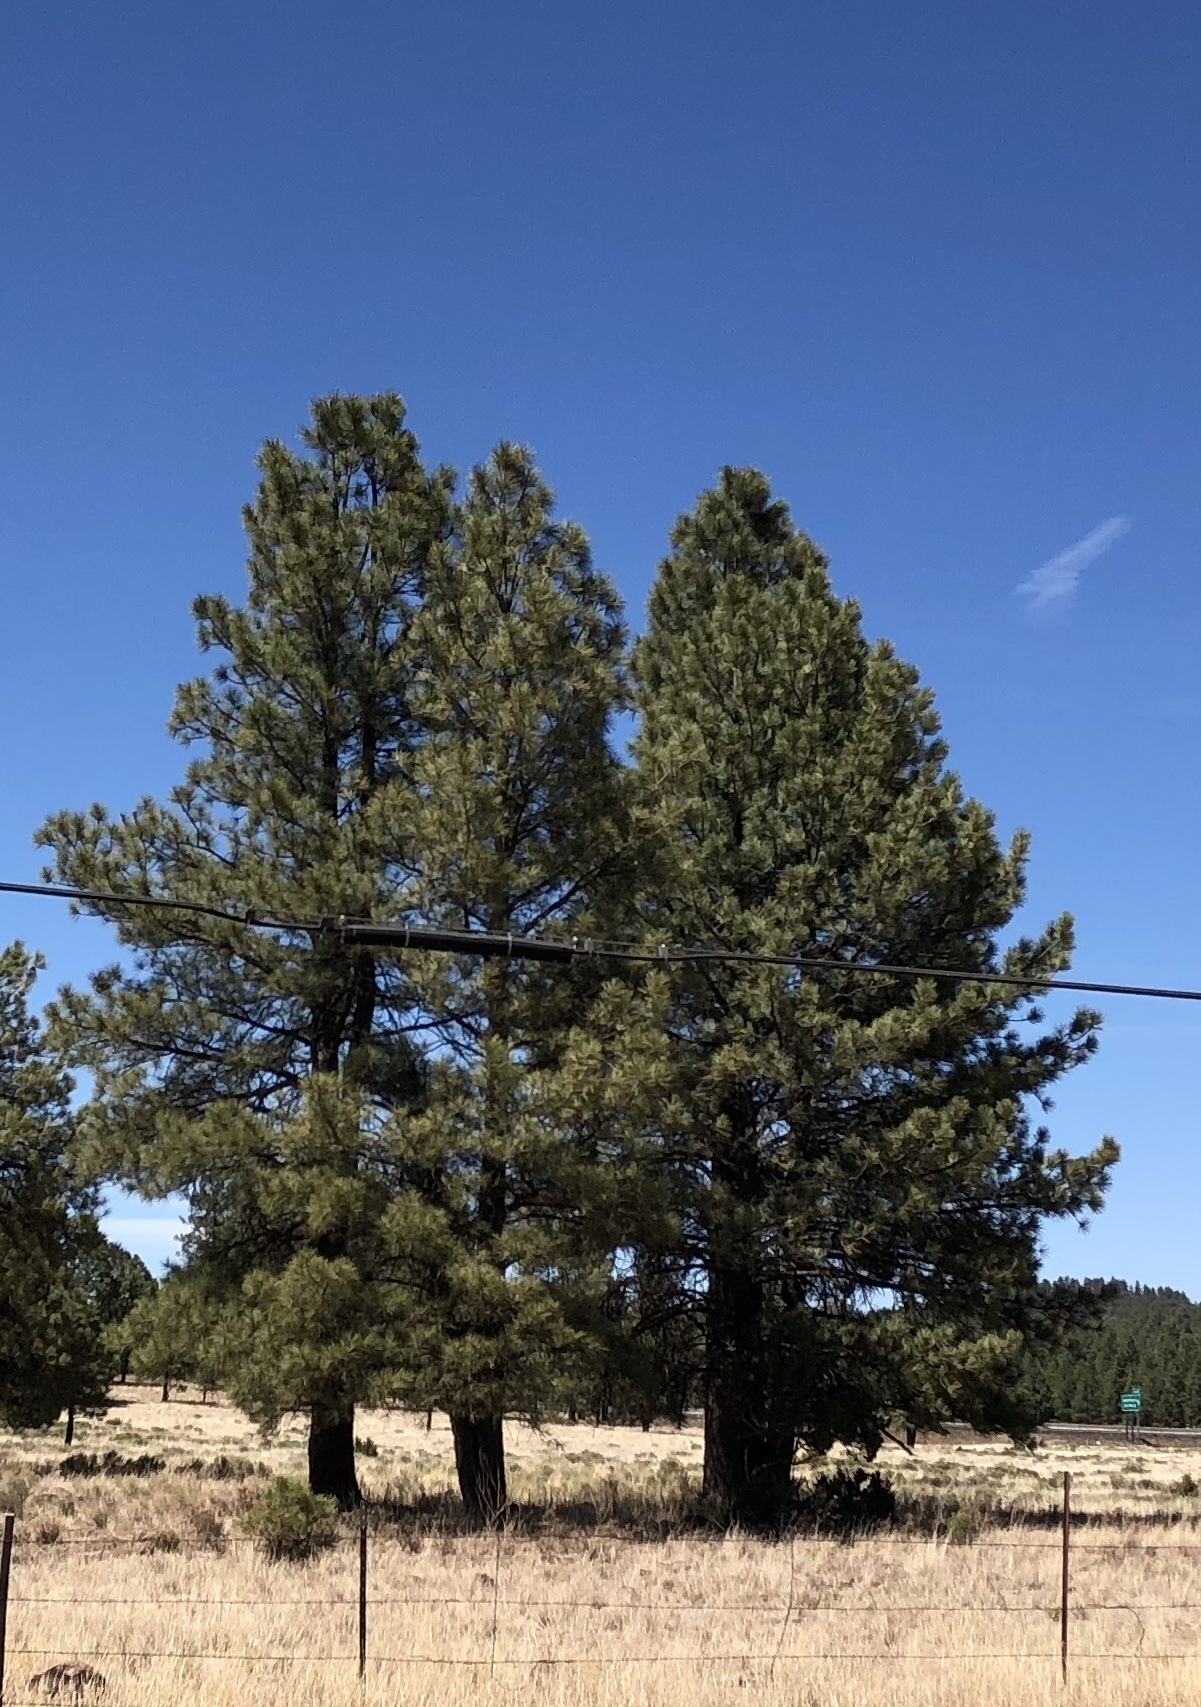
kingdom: Plantae
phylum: Tracheophyta
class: Pinopsida
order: Pinales
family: Pinaceae
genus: Pinus
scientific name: Pinus ponderosa
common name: Western yellow-pine
